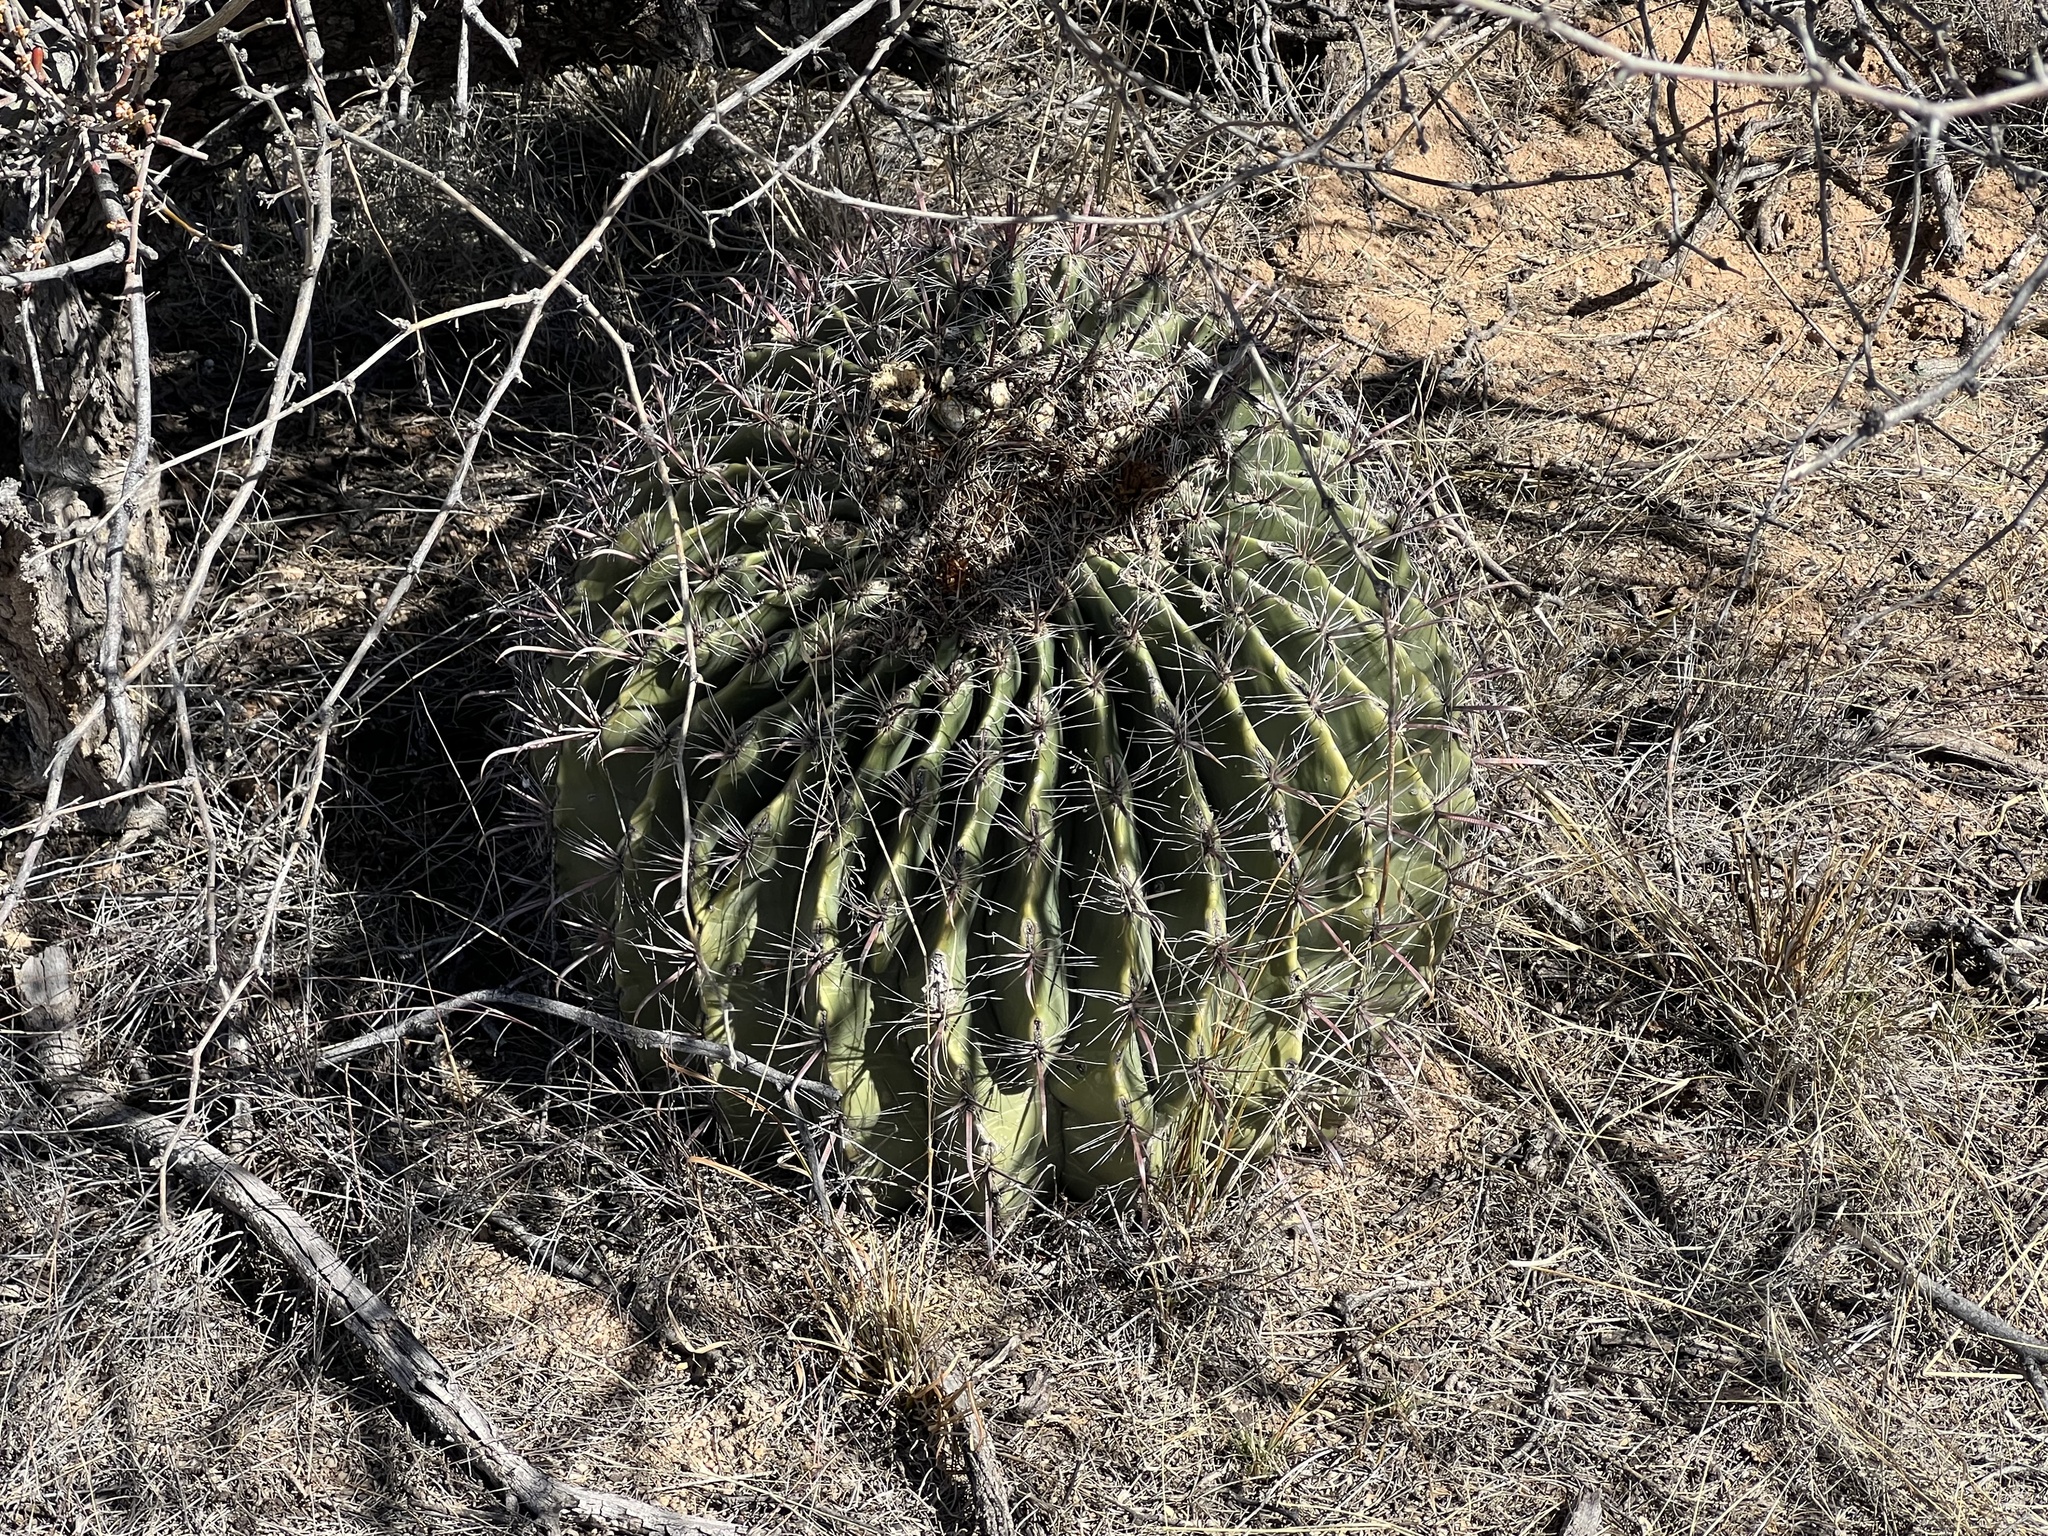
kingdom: Plantae
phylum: Tracheophyta
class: Magnoliopsida
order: Caryophyllales
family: Cactaceae
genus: Ferocactus
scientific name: Ferocactus wislizeni
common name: Candy barrel cactus
